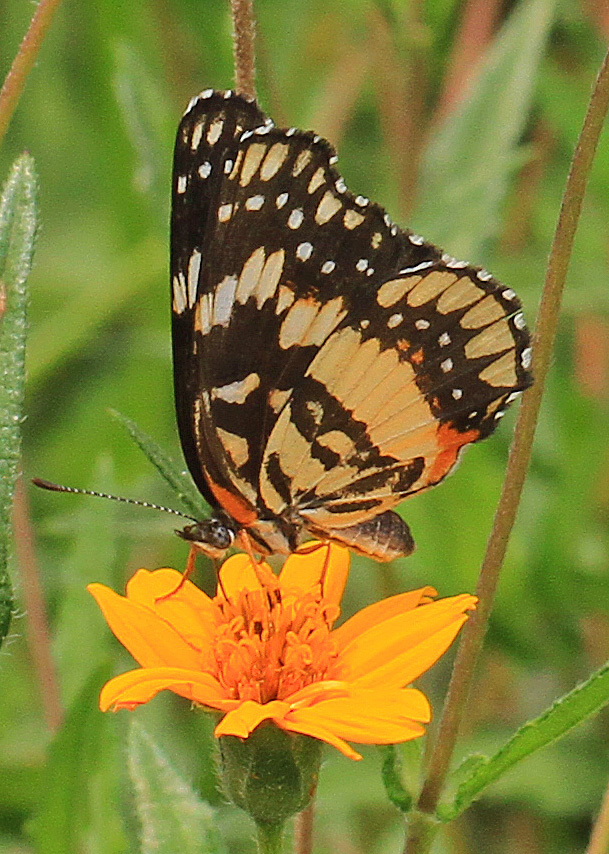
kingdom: Animalia
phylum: Arthropoda
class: Insecta
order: Lepidoptera
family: Nymphalidae
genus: Chlosyne
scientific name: Chlosyne lacinia
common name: Bordered patch
